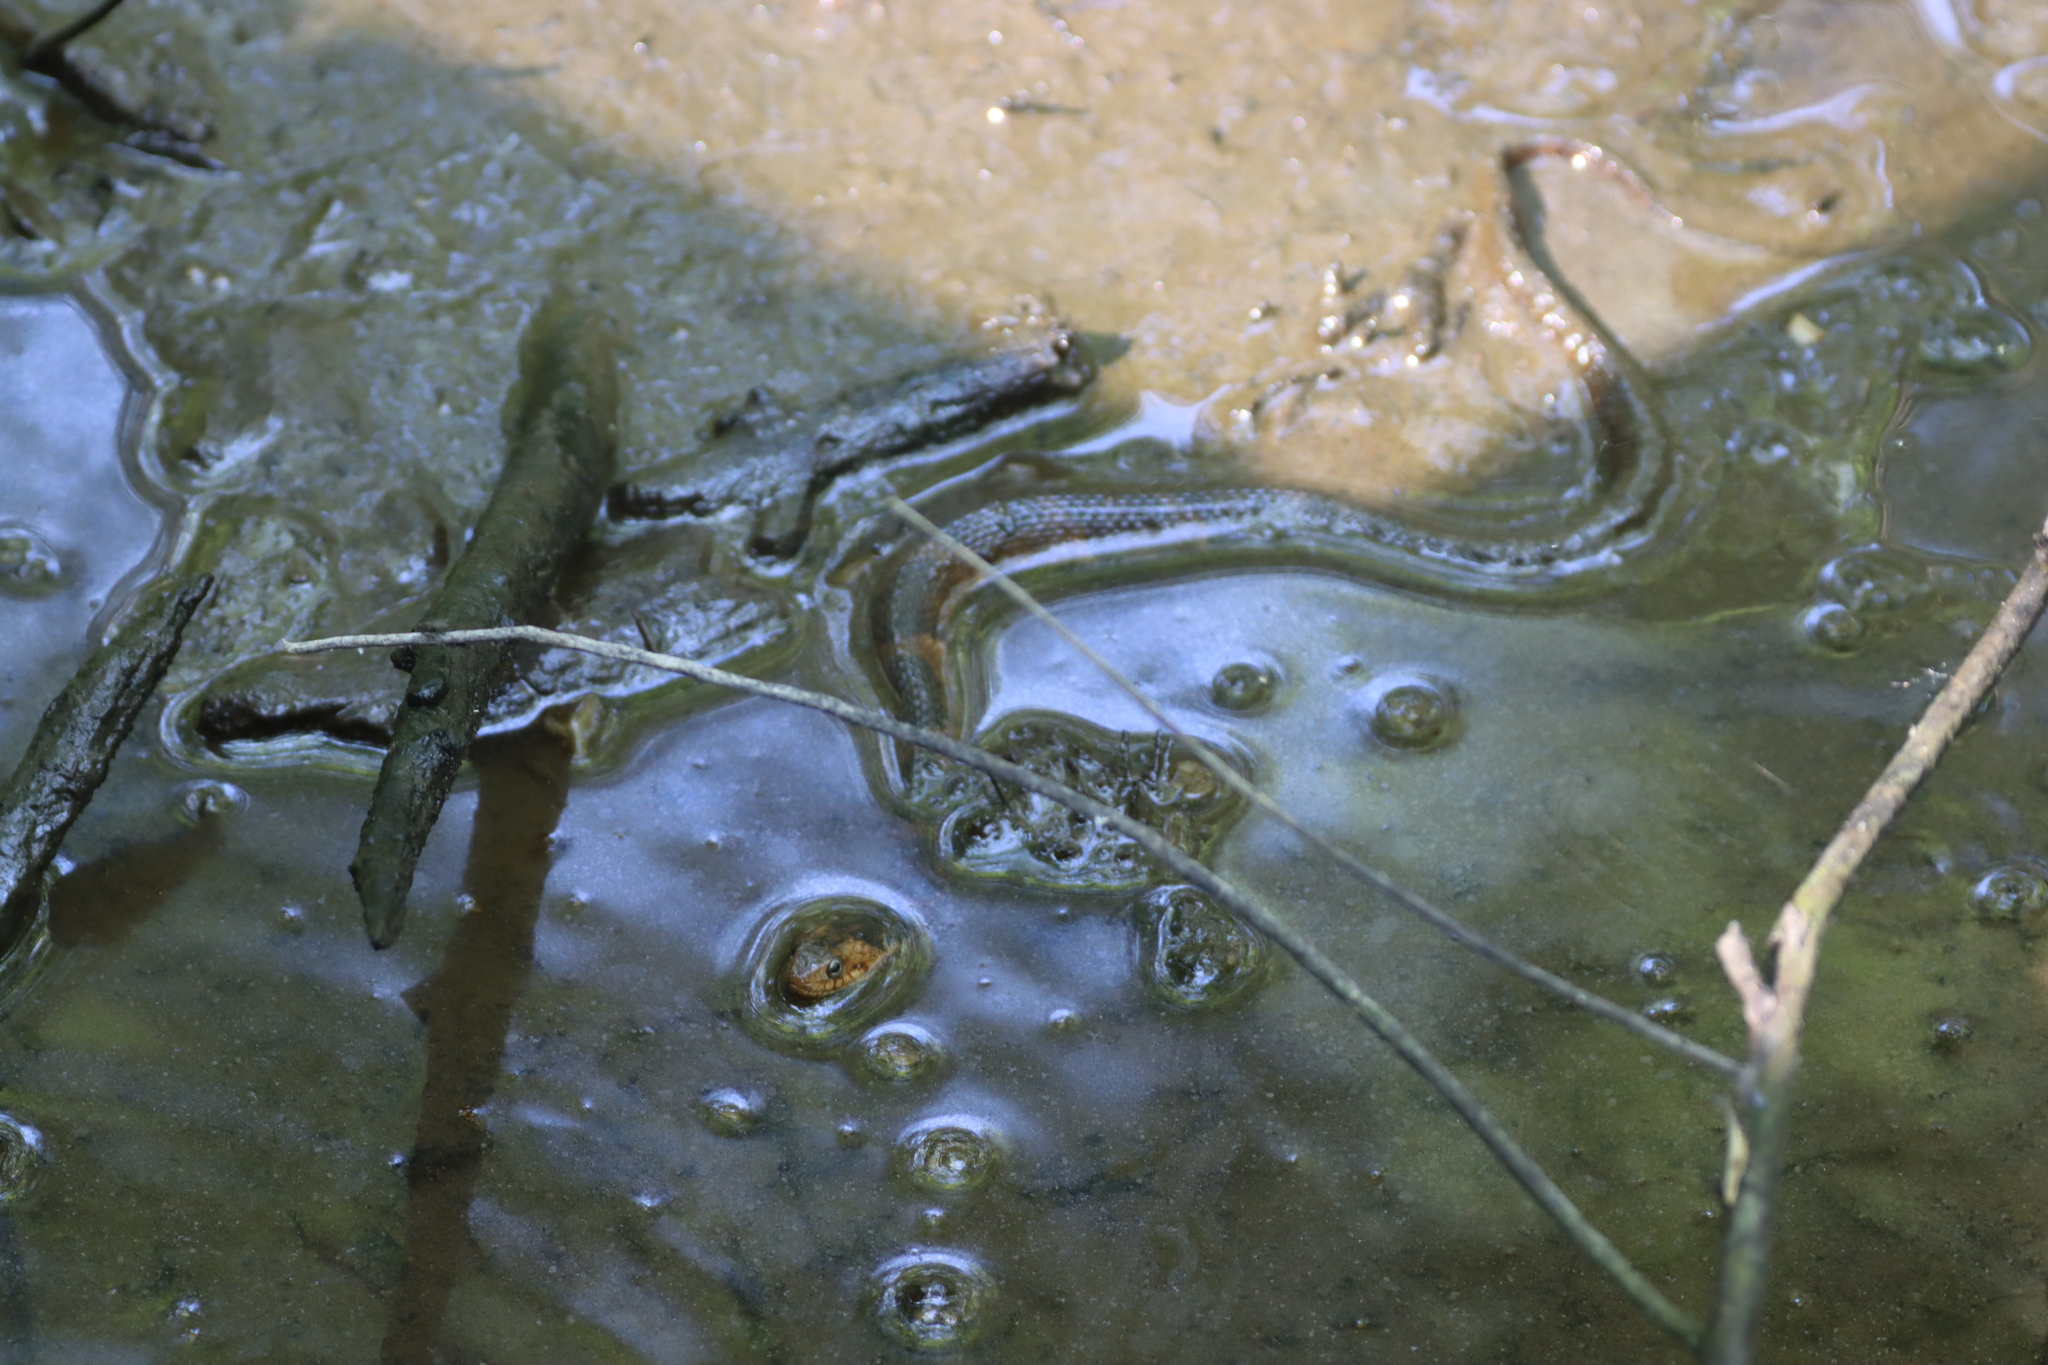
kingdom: Animalia
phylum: Chordata
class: Squamata
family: Colubridae
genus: Nerodia
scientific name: Nerodia fasciata
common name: Southern water snake
